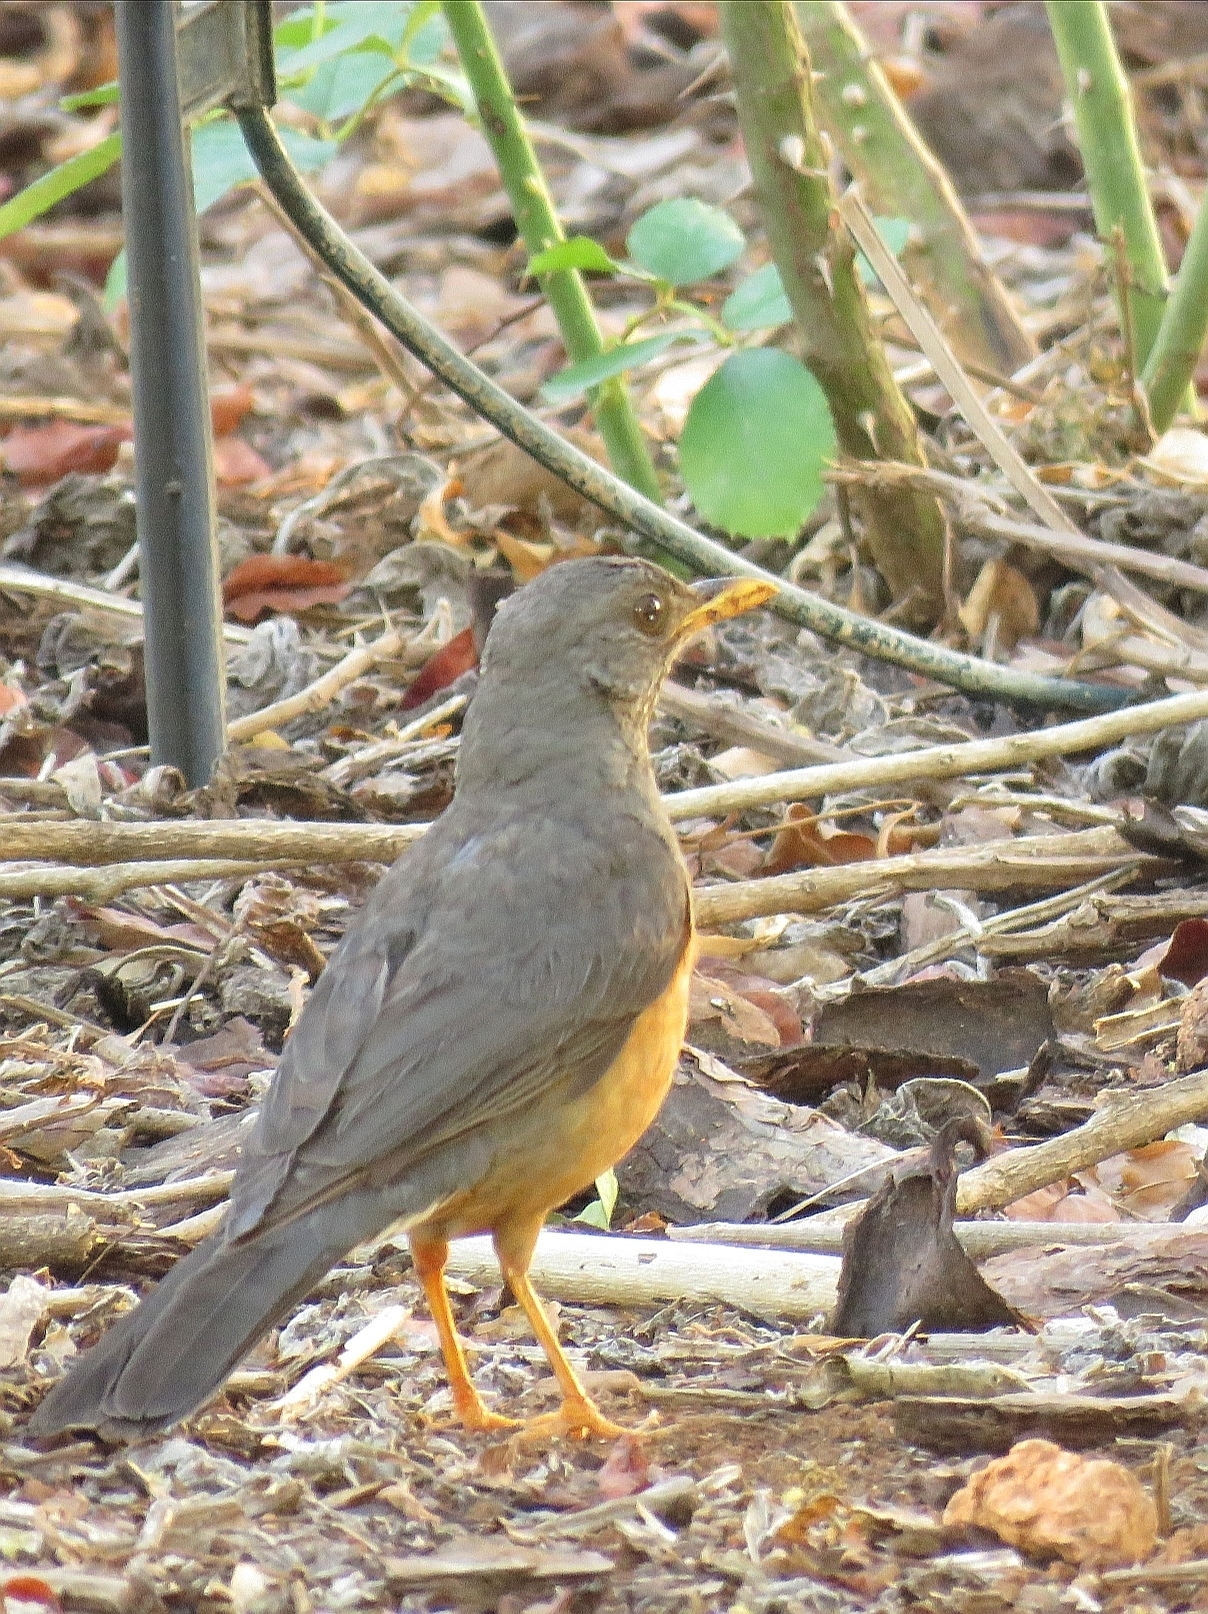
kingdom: Animalia
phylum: Chordata
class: Aves
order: Passeriformes
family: Turdidae
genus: Turdus
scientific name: Turdus olivaceus
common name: Olive thrush
